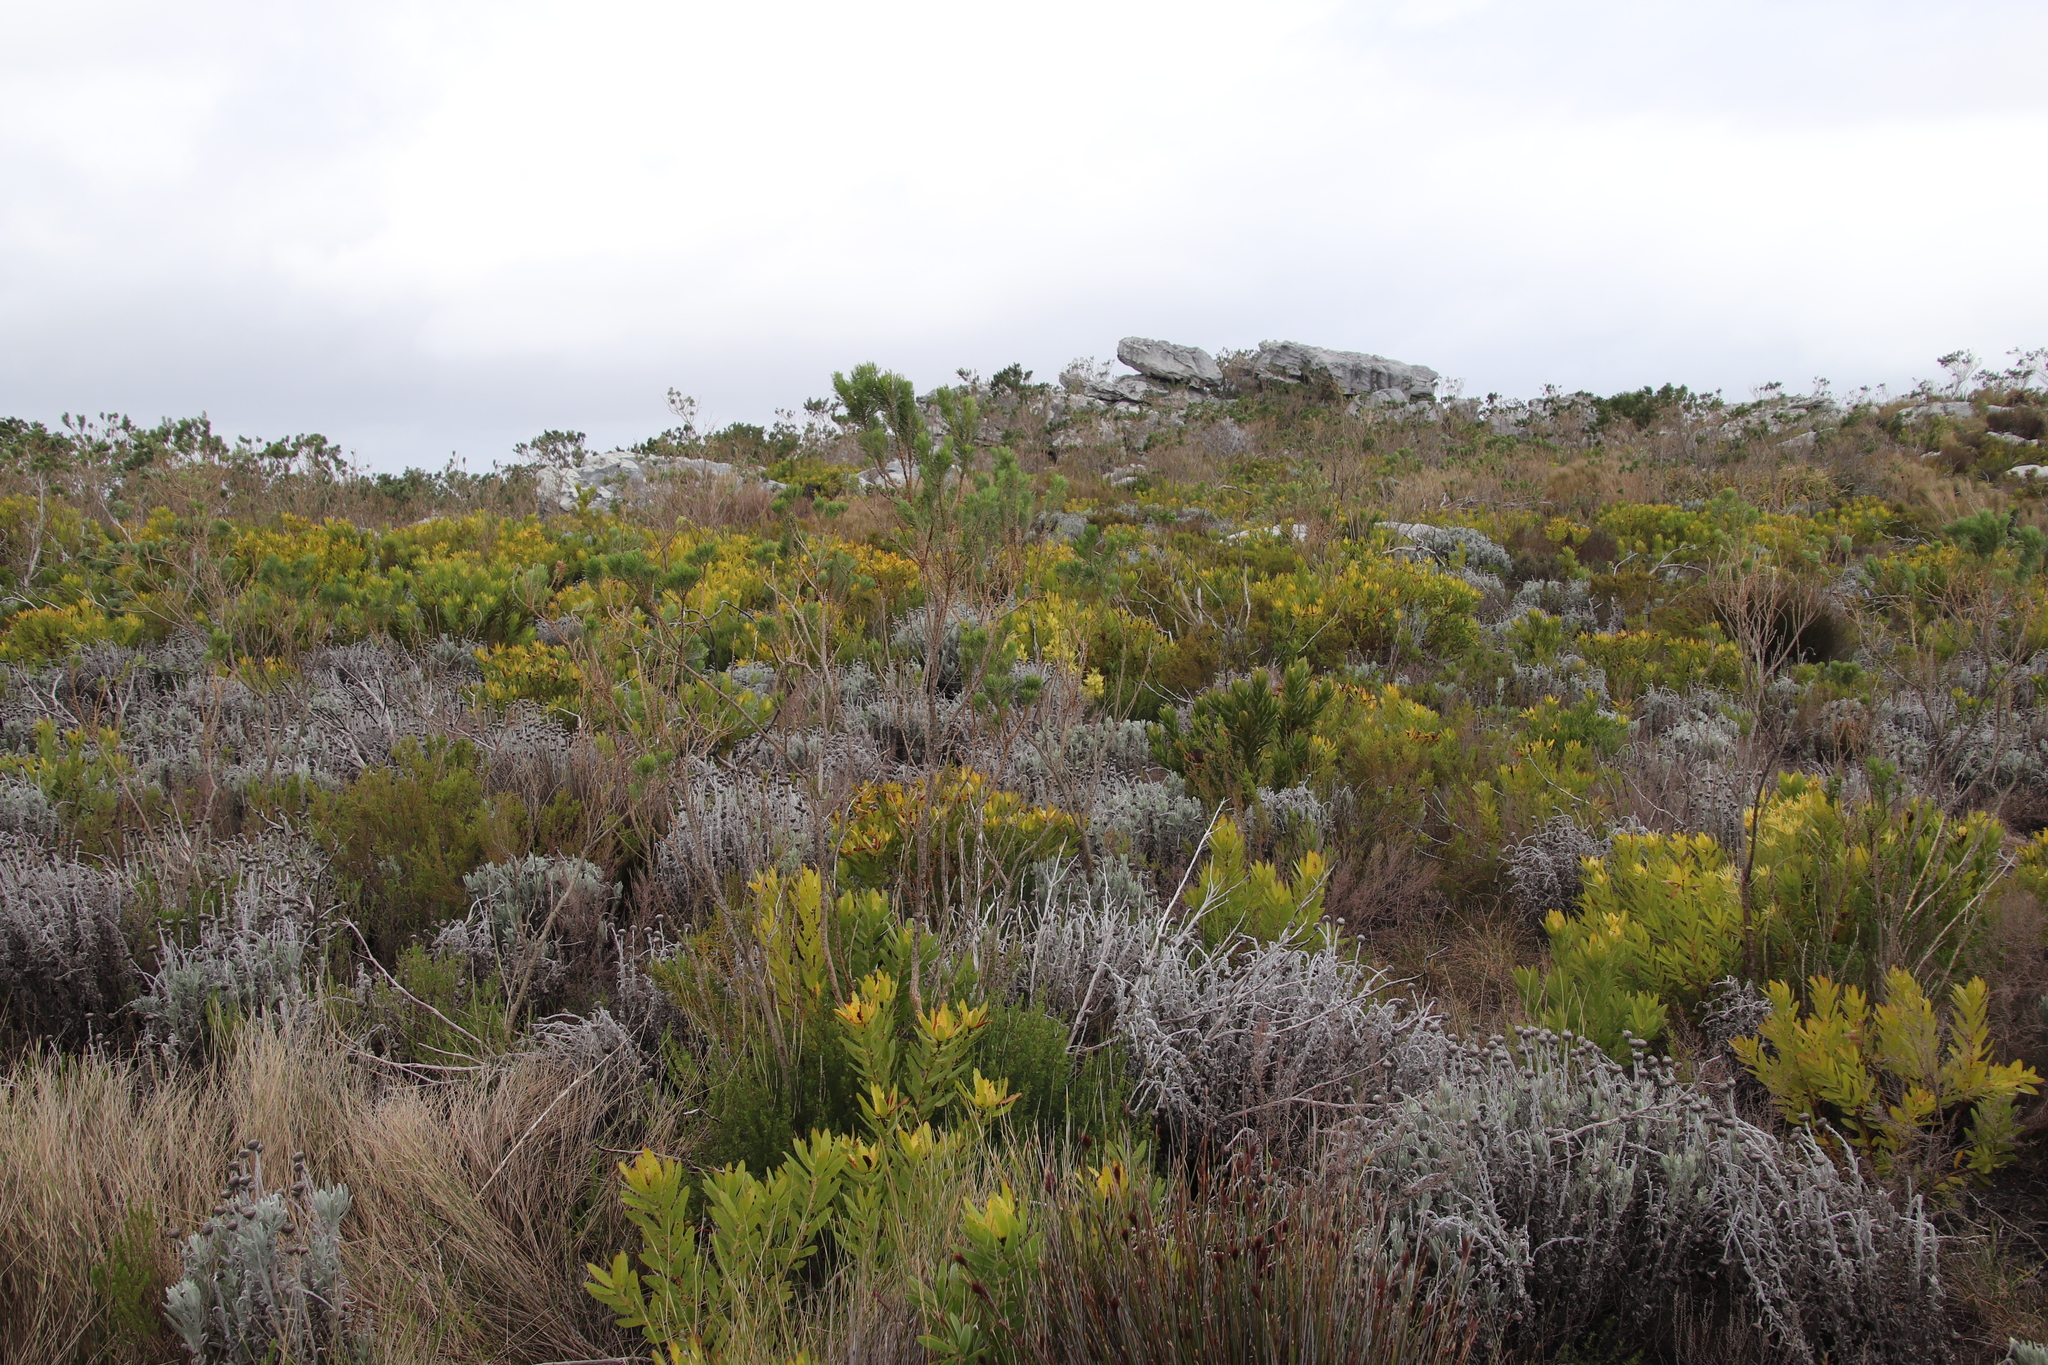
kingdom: Plantae
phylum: Tracheophyta
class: Magnoliopsida
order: Proteales
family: Proteaceae
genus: Leucadendron
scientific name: Leucadendron laureolum
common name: Golden sunshinebush
